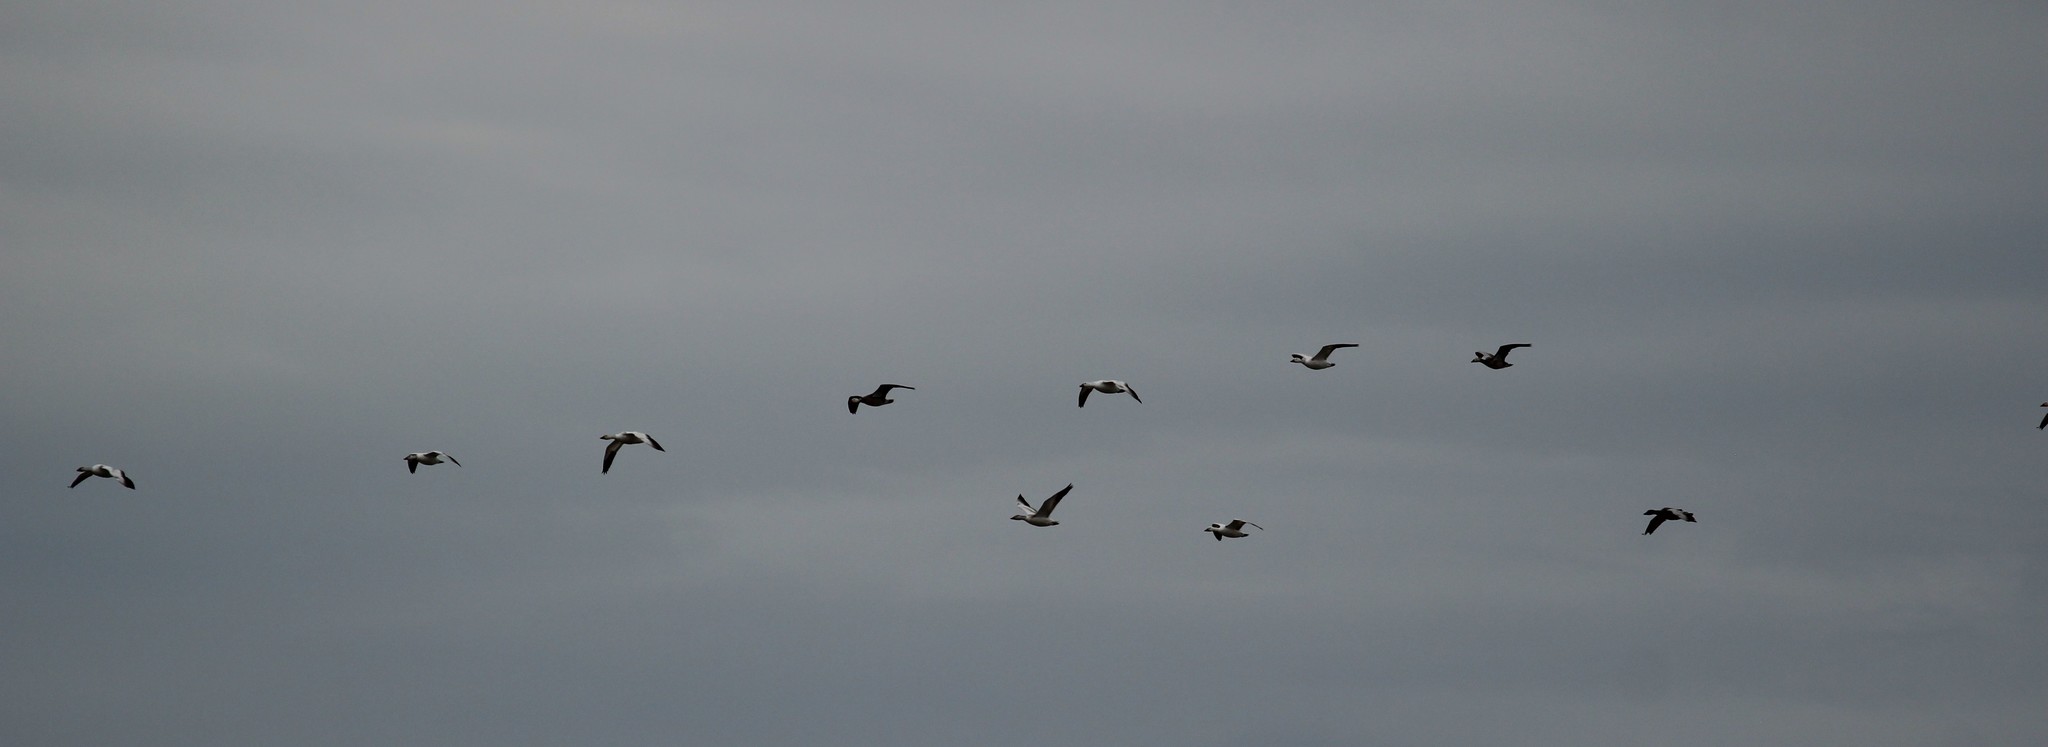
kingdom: Animalia
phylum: Chordata
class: Aves
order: Anseriformes
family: Anatidae
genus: Anser
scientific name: Anser caerulescens
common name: Snow goose
